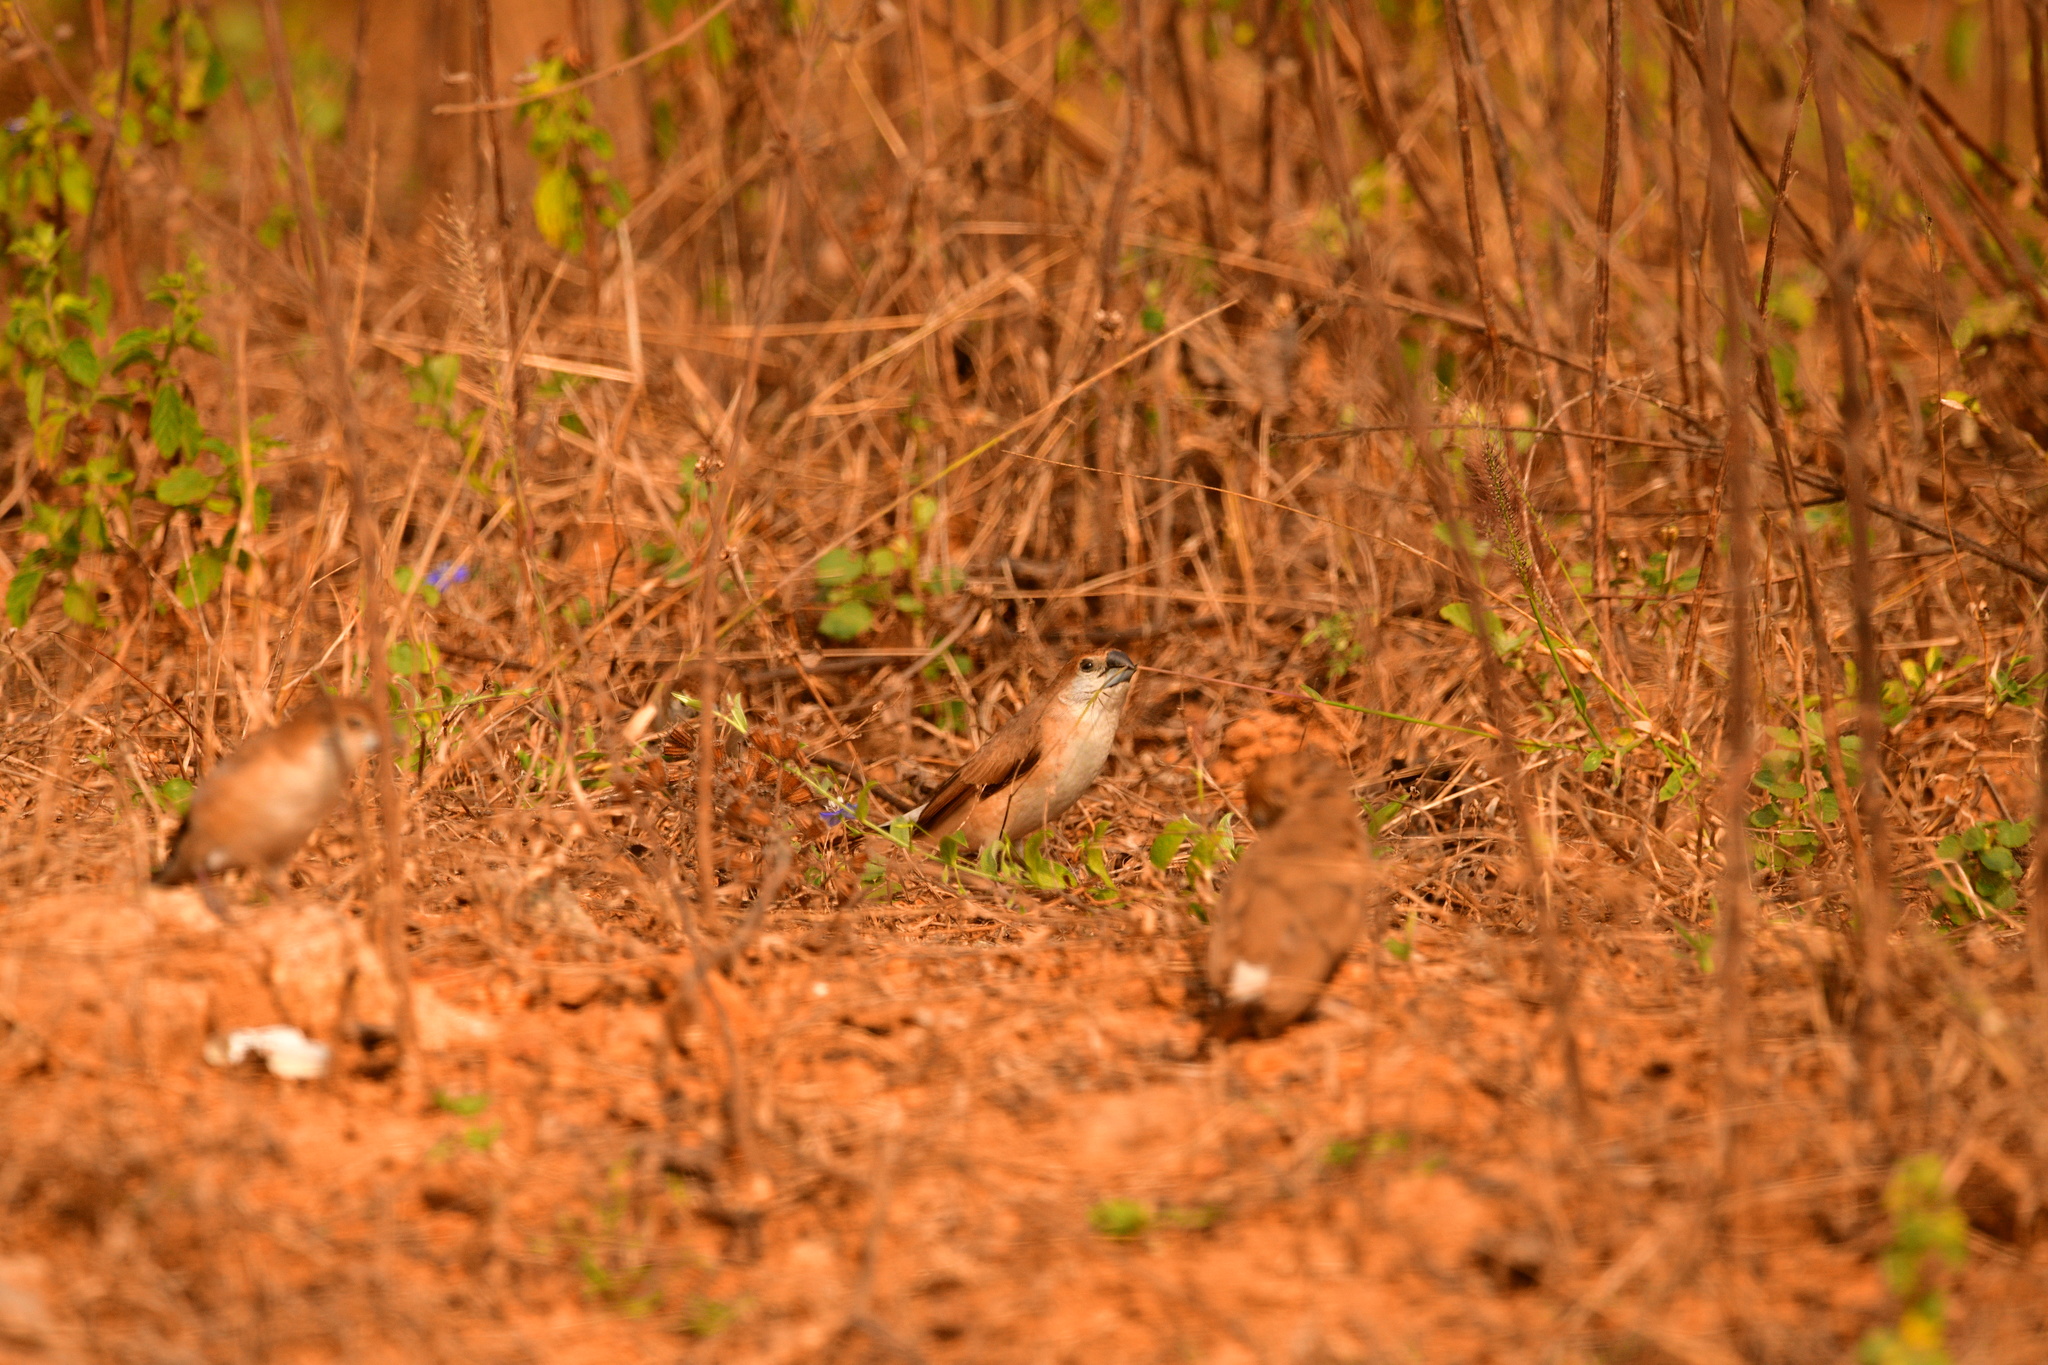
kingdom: Animalia
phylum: Chordata
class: Aves
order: Passeriformes
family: Estrildidae
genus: Euodice
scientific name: Euodice malabarica
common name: Indian silverbill
